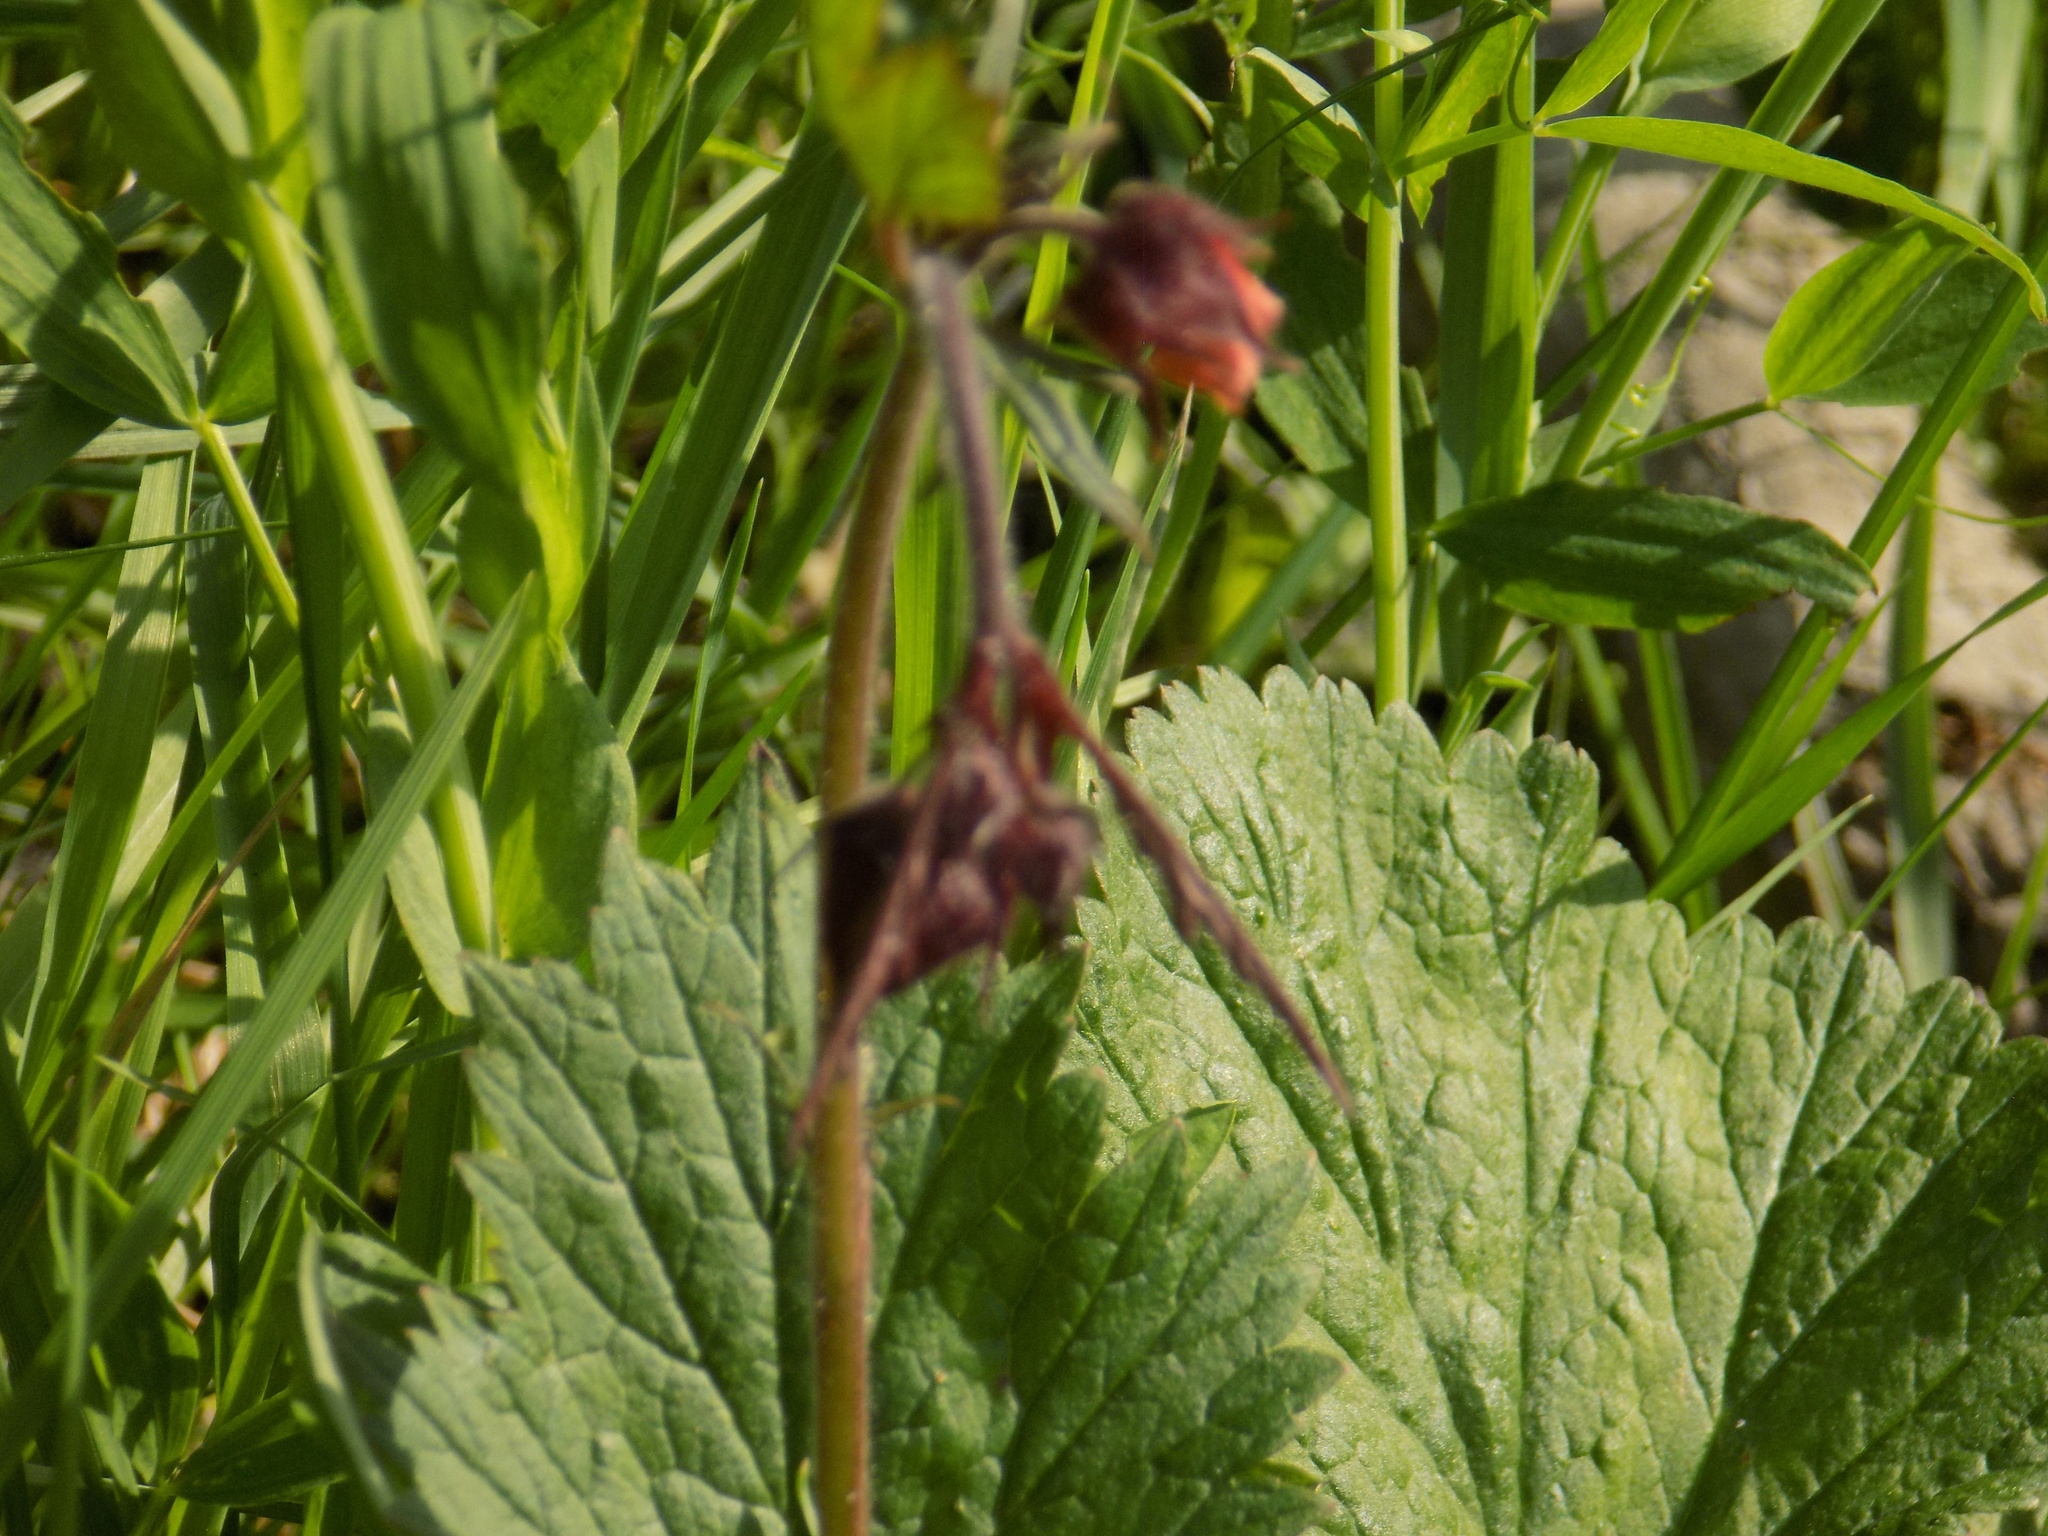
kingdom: Plantae
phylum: Tracheophyta
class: Magnoliopsida
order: Rosales
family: Rosaceae
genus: Geum
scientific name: Geum rivale
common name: Water avens
